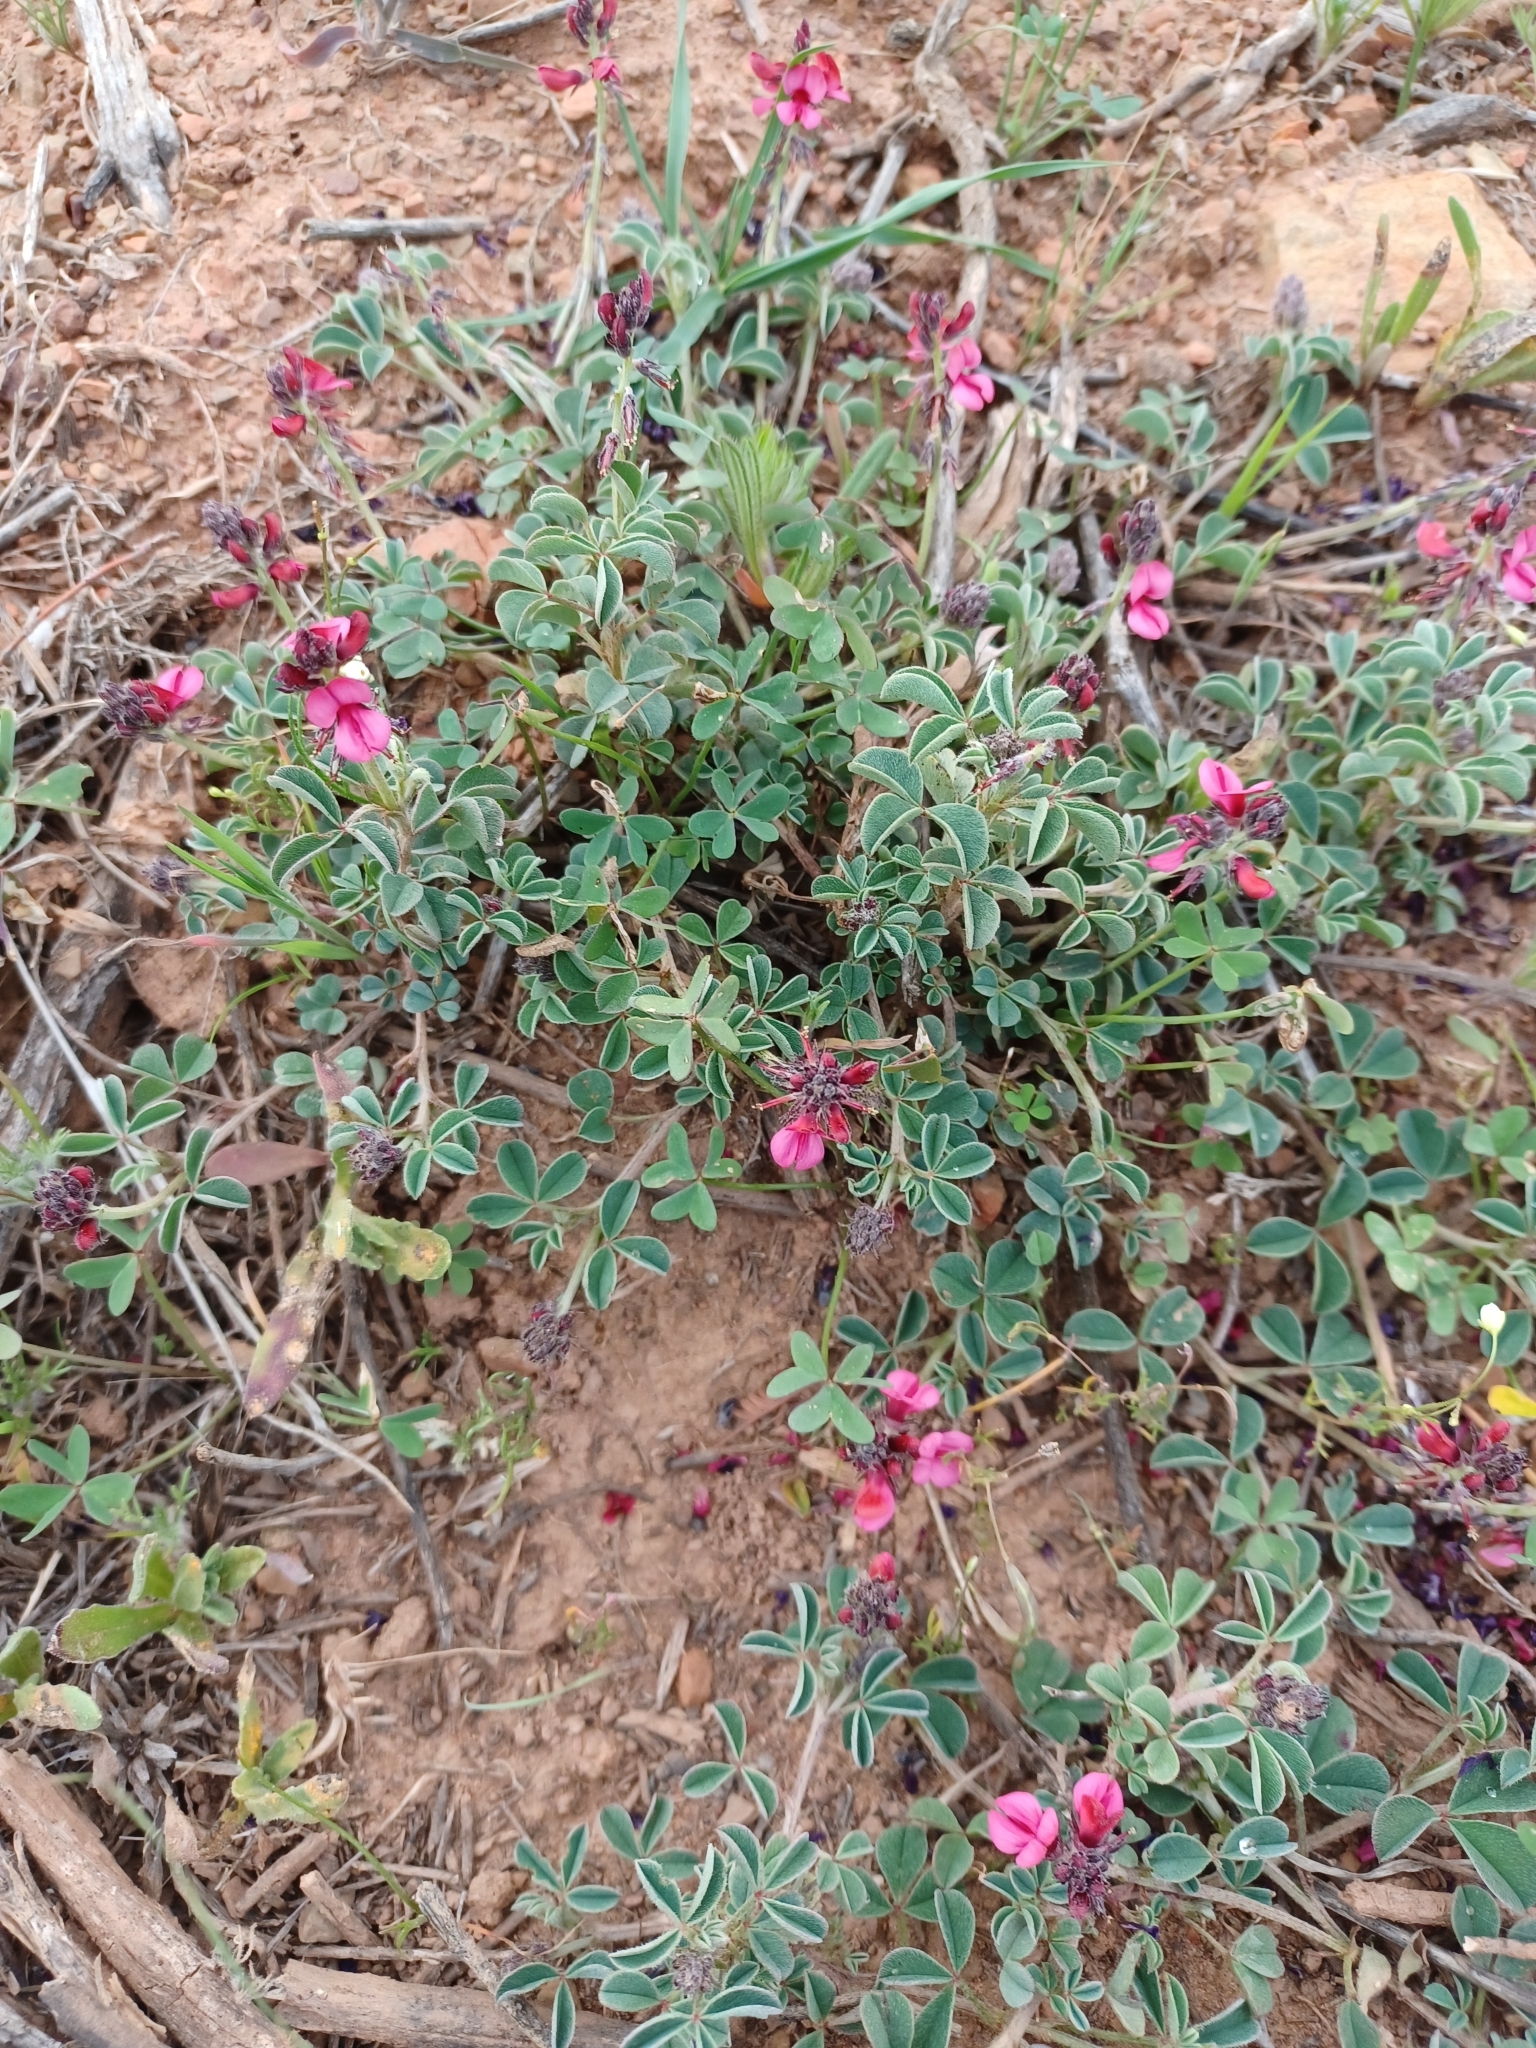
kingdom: Plantae
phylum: Tracheophyta
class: Magnoliopsida
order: Fabales
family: Fabaceae
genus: Indigofera
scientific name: Indigofera
